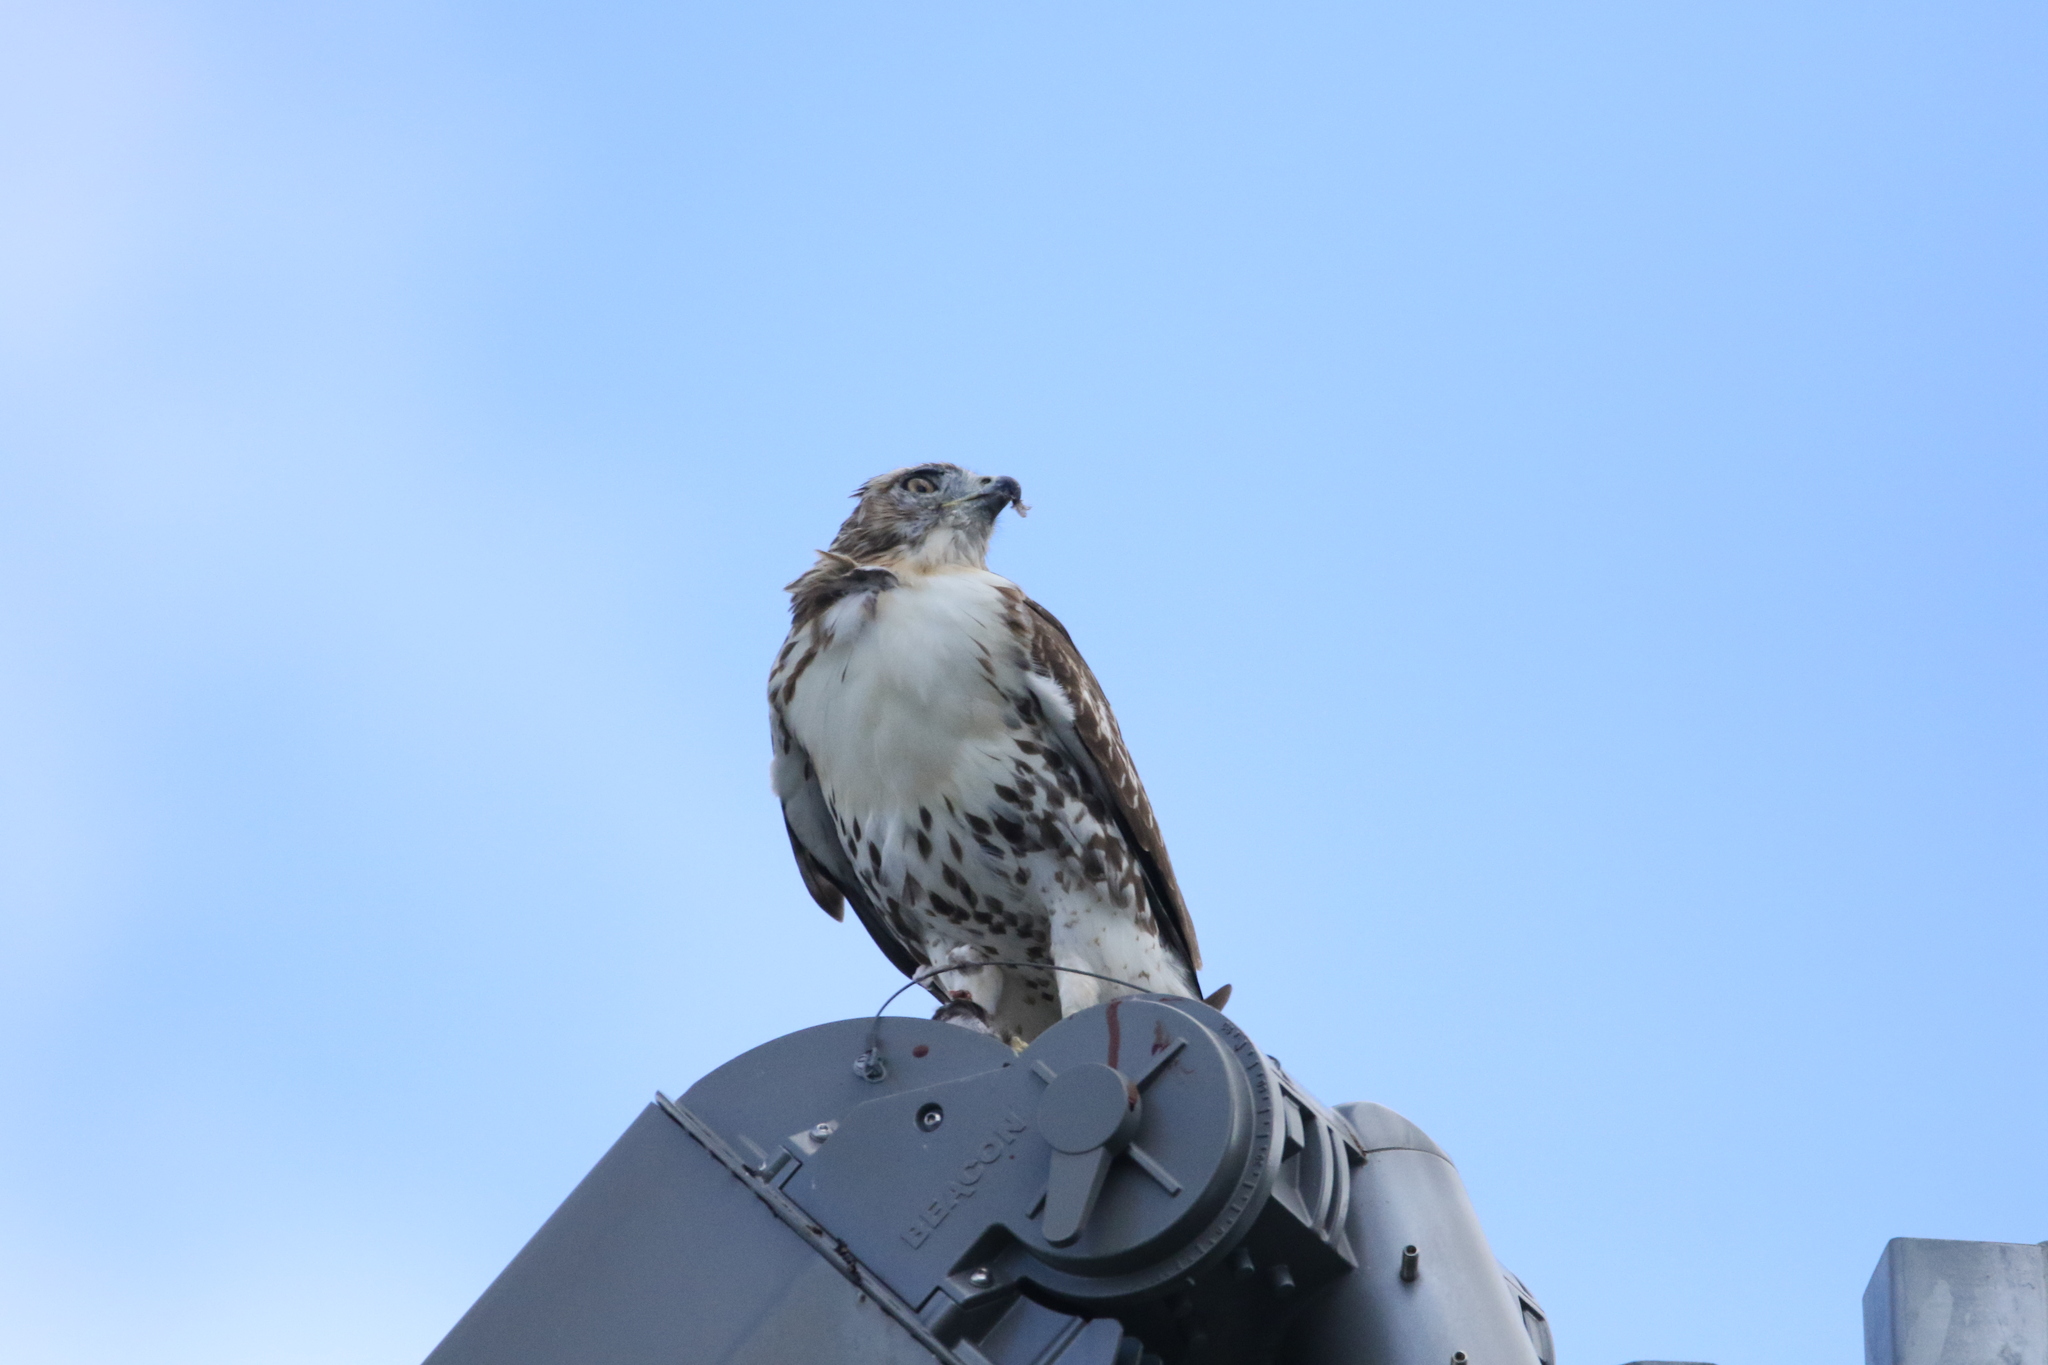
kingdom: Animalia
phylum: Chordata
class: Aves
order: Accipitriformes
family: Accipitridae
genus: Buteo
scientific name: Buteo jamaicensis
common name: Red-tailed hawk
